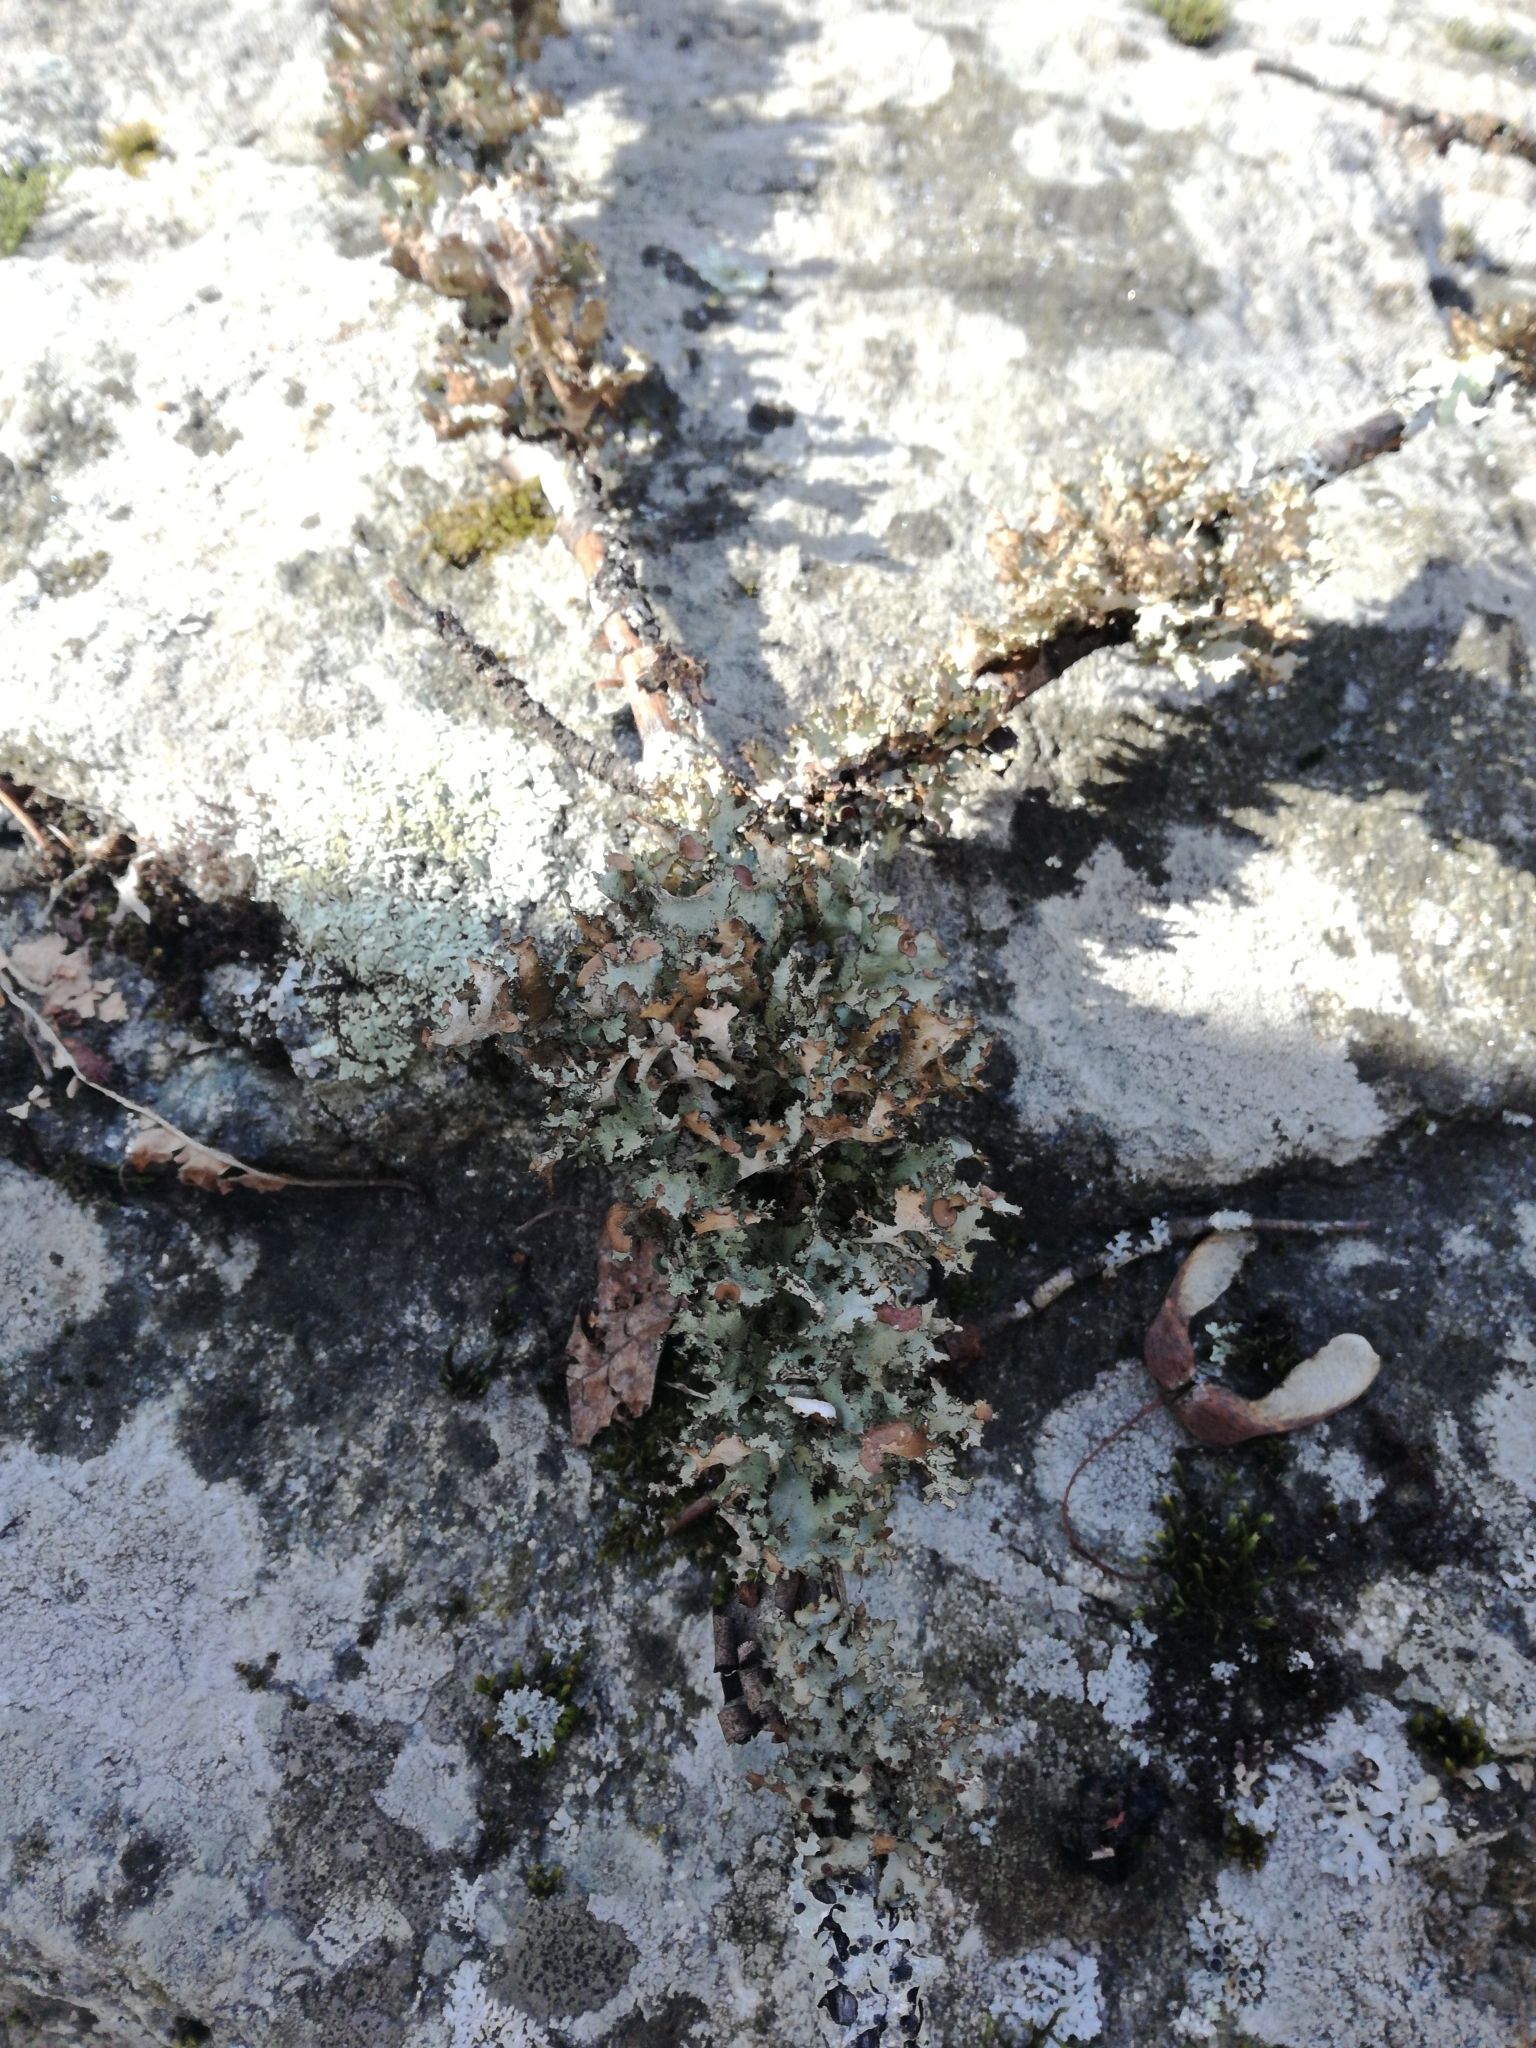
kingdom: Fungi
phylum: Ascomycota
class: Lecanoromycetes
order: Lecanorales
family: Parmeliaceae
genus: Platismatia
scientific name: Platismatia tuckermanii
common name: Crumpled rag lichen
